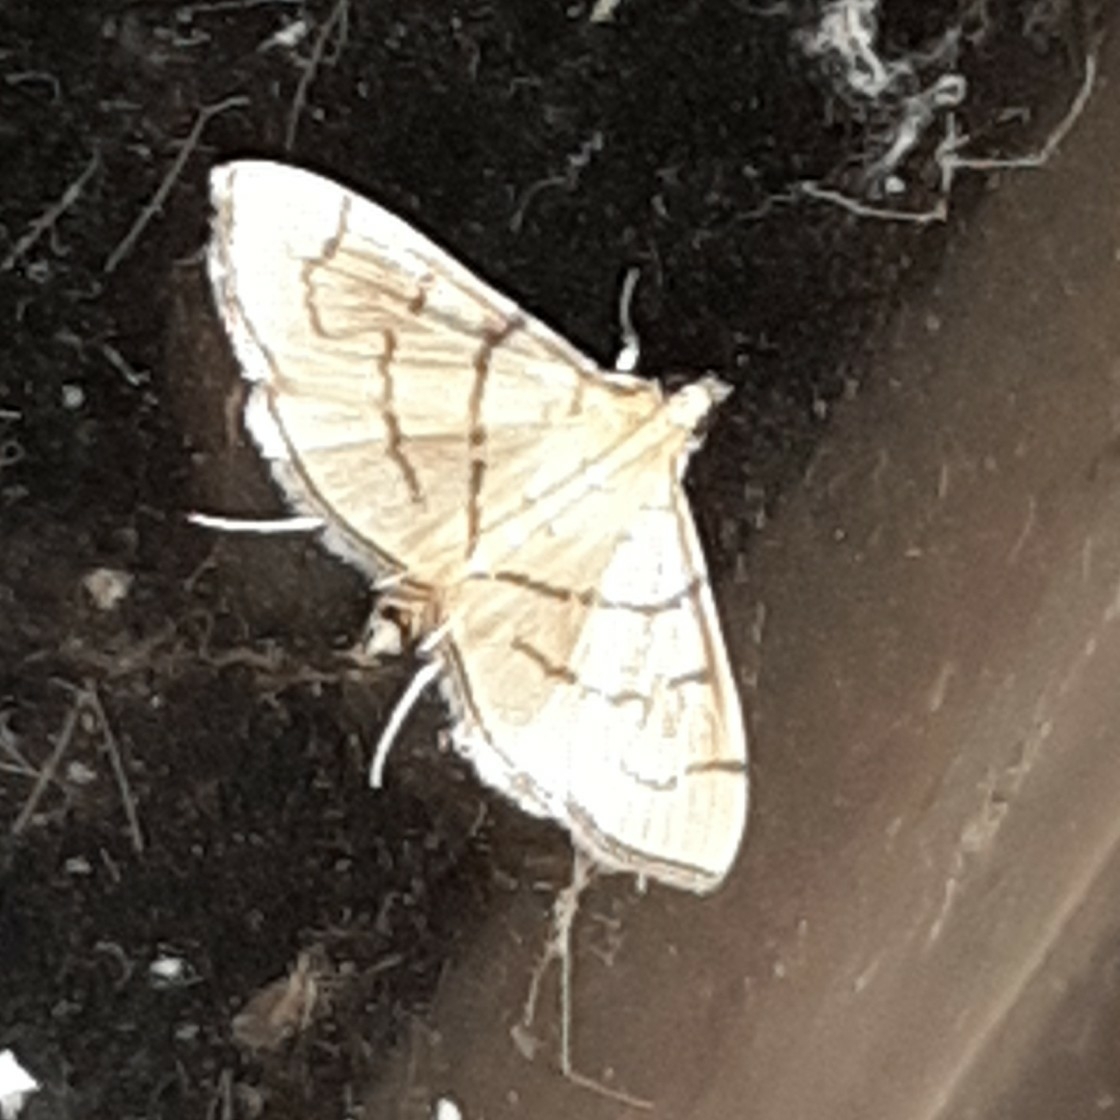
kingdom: Animalia
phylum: Arthropoda
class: Insecta
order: Lepidoptera
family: Crambidae
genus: Salbia
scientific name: Salbia haemorrhoidalis
